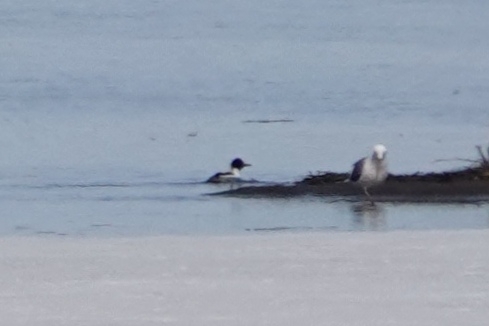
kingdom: Animalia
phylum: Chordata
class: Aves
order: Anseriformes
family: Anatidae
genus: Mergus
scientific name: Mergus serrator
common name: Red-breasted merganser
